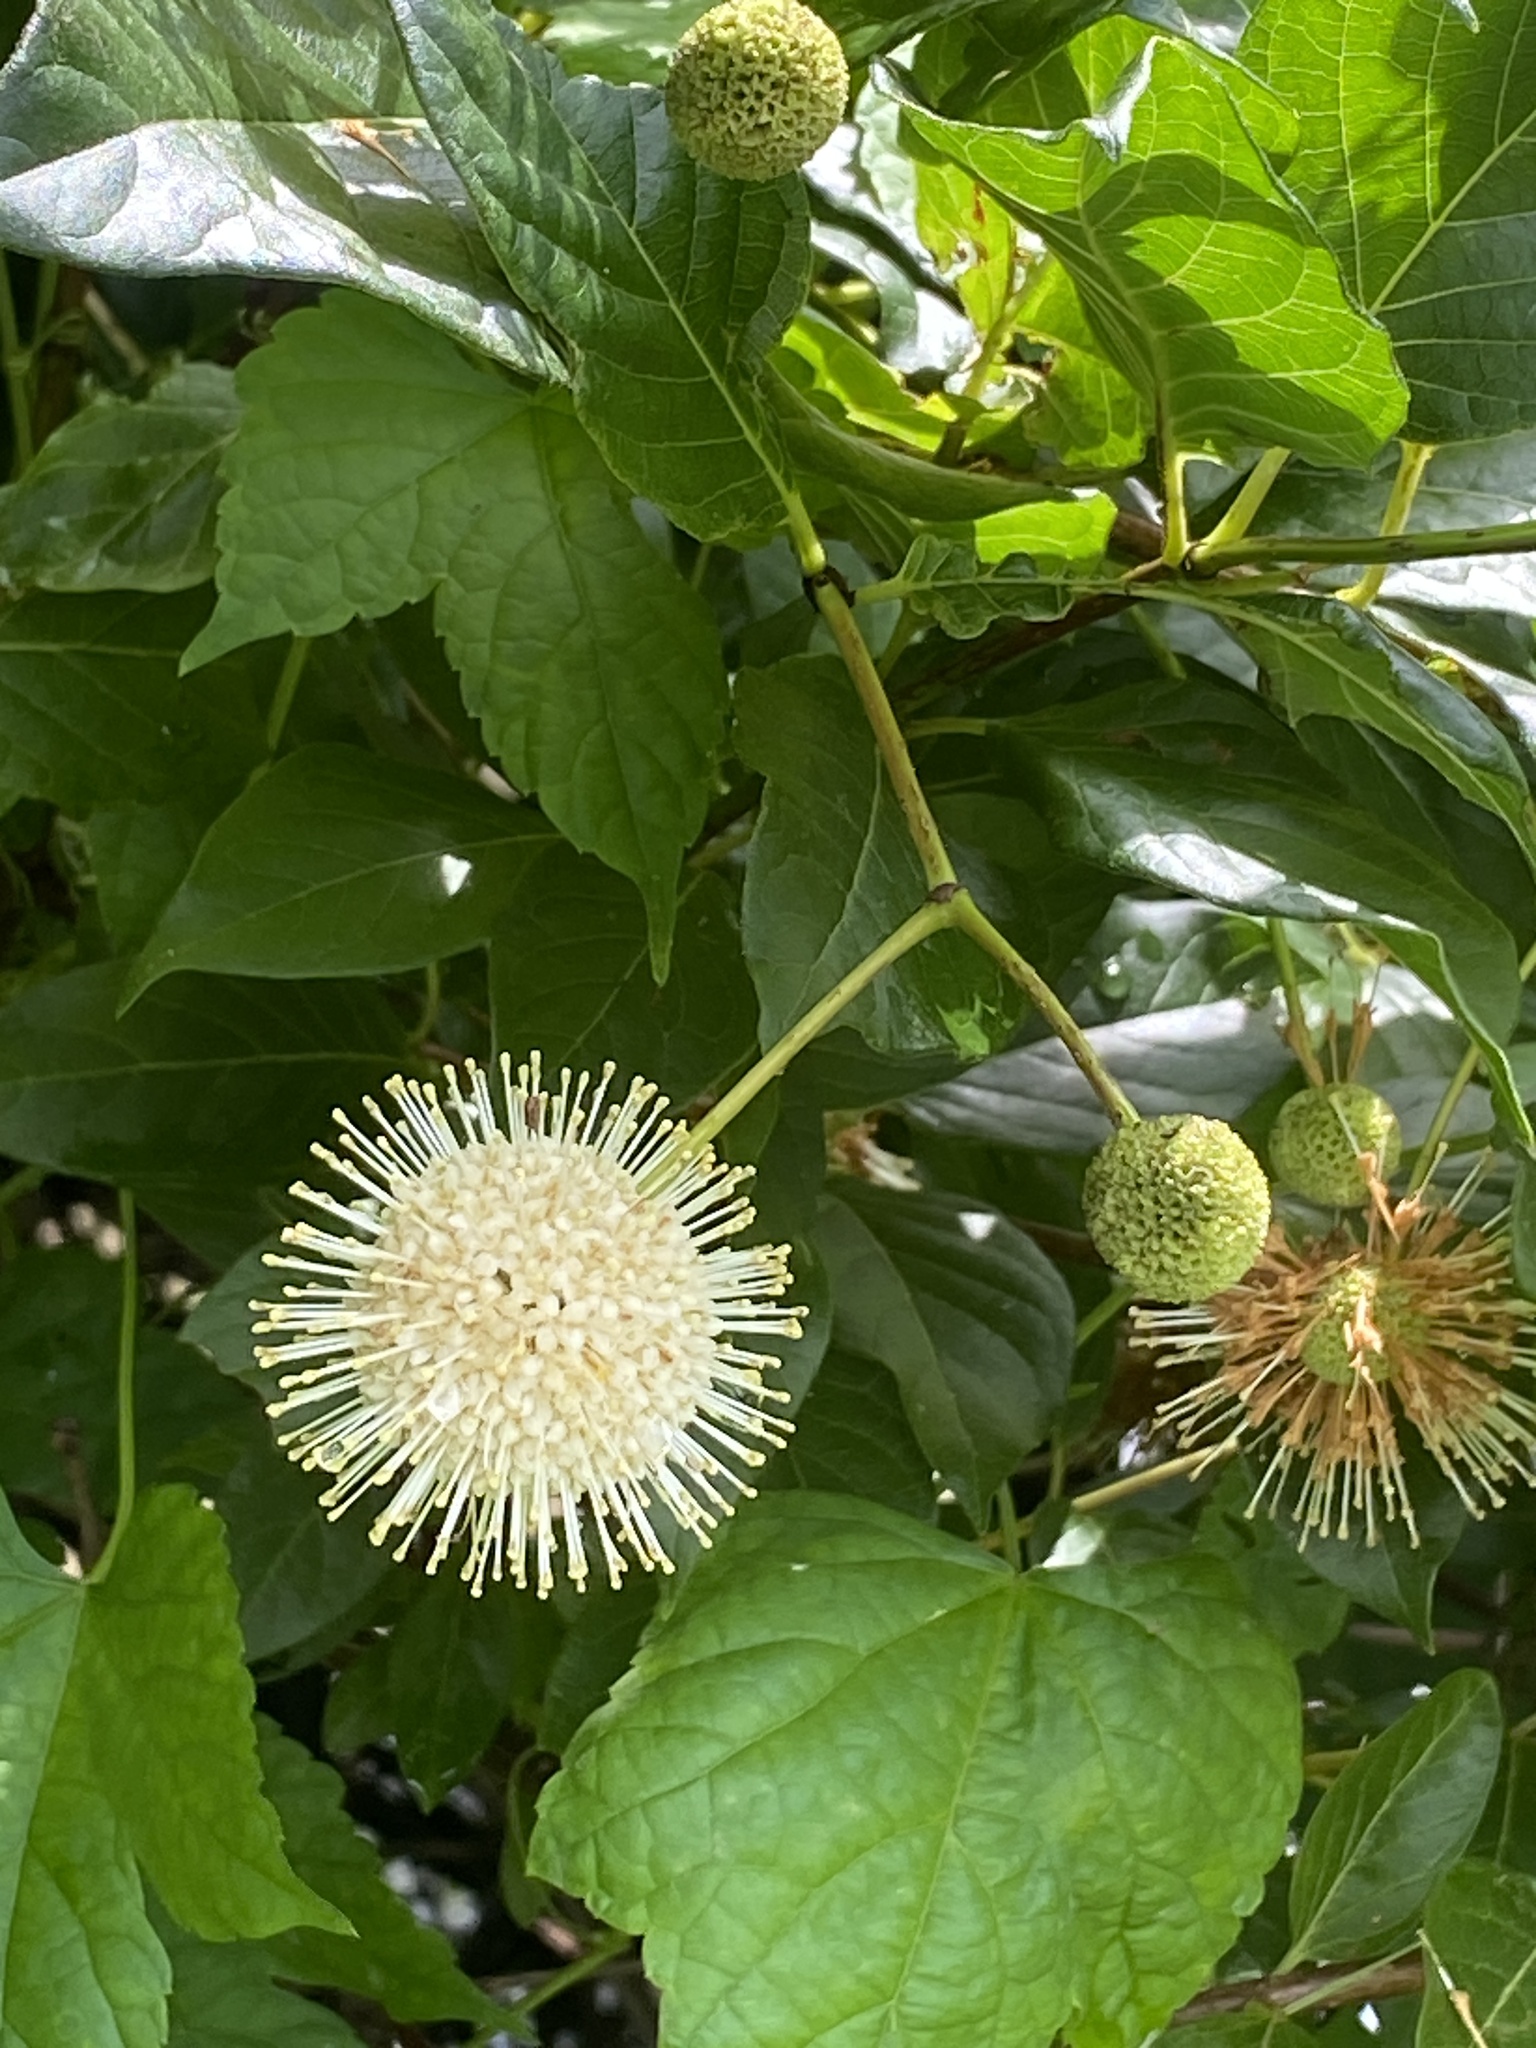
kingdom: Plantae
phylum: Tracheophyta
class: Magnoliopsida
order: Gentianales
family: Rubiaceae
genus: Cephalanthus
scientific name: Cephalanthus occidentalis
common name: Button-willow
